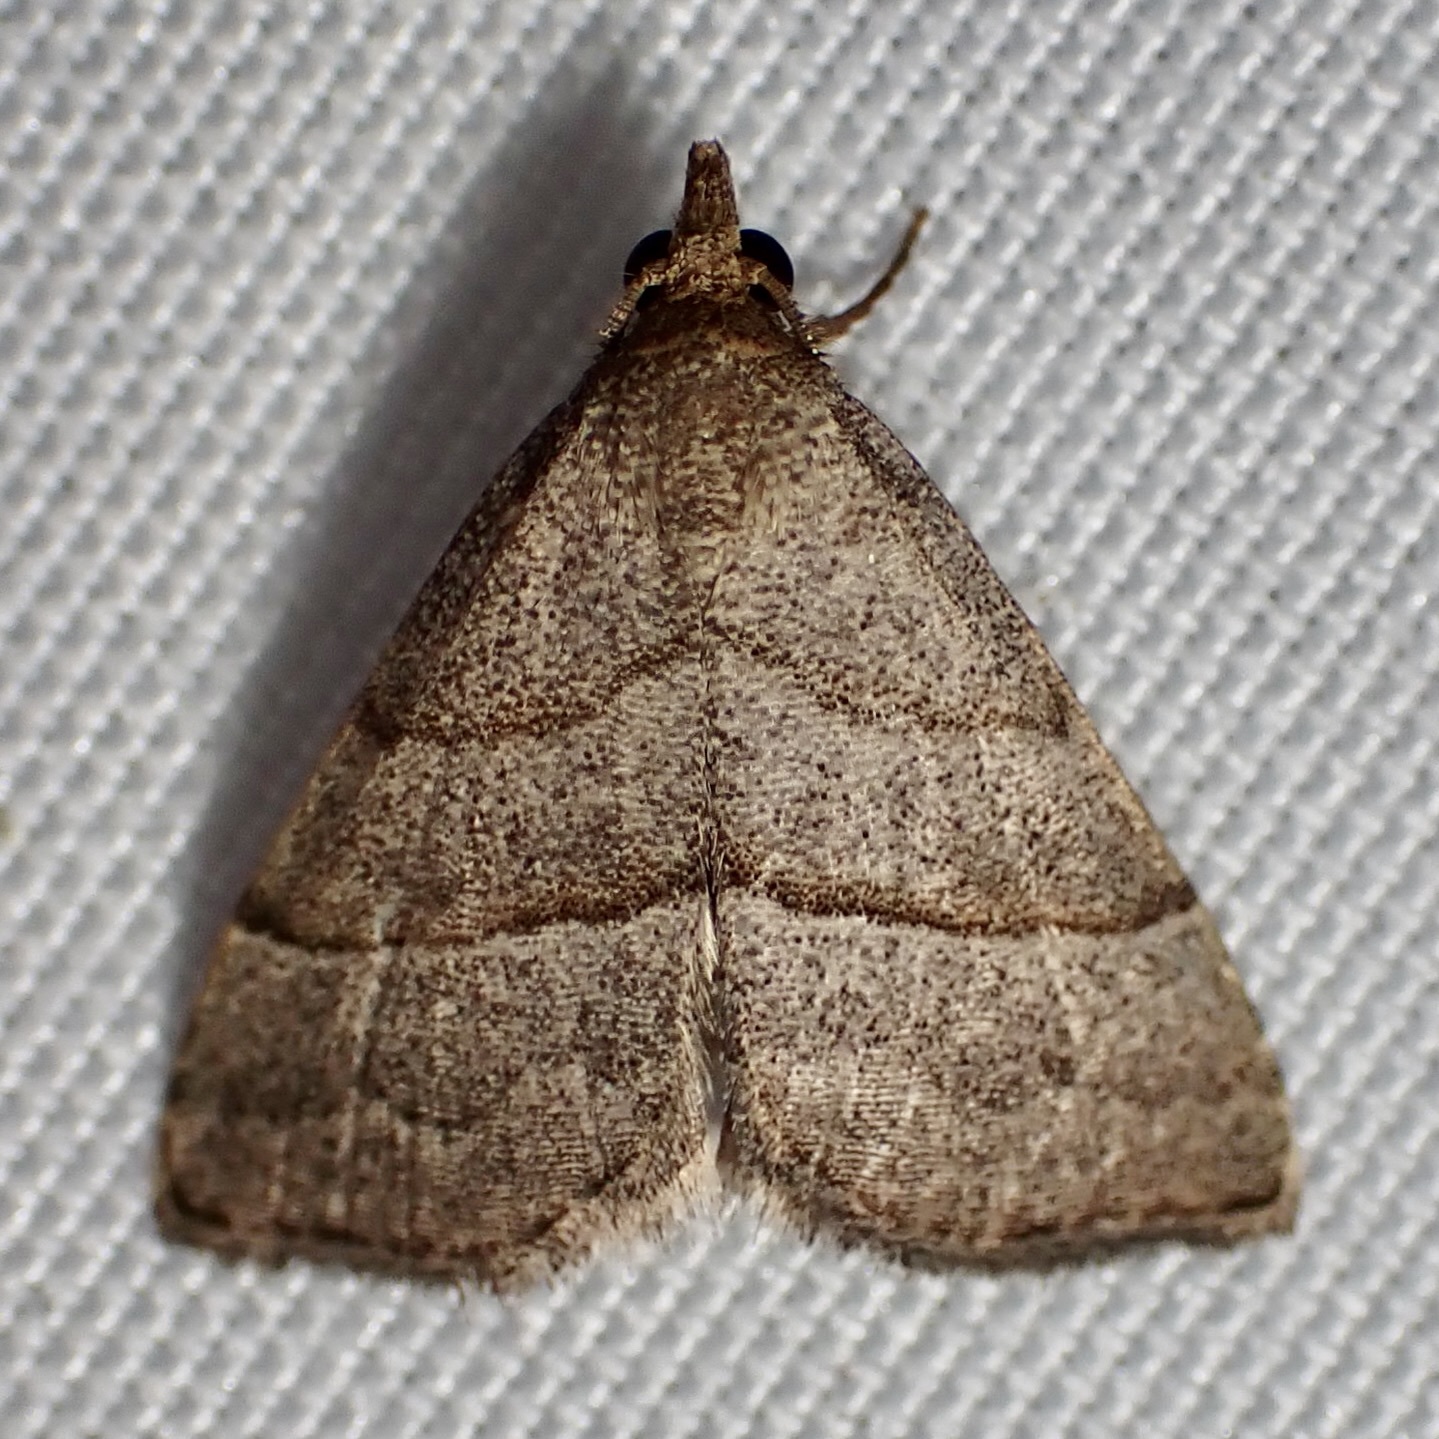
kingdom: Animalia
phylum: Arthropoda
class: Insecta
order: Lepidoptera
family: Erebidae
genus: Zelicodes
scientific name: Zelicodes linearis
